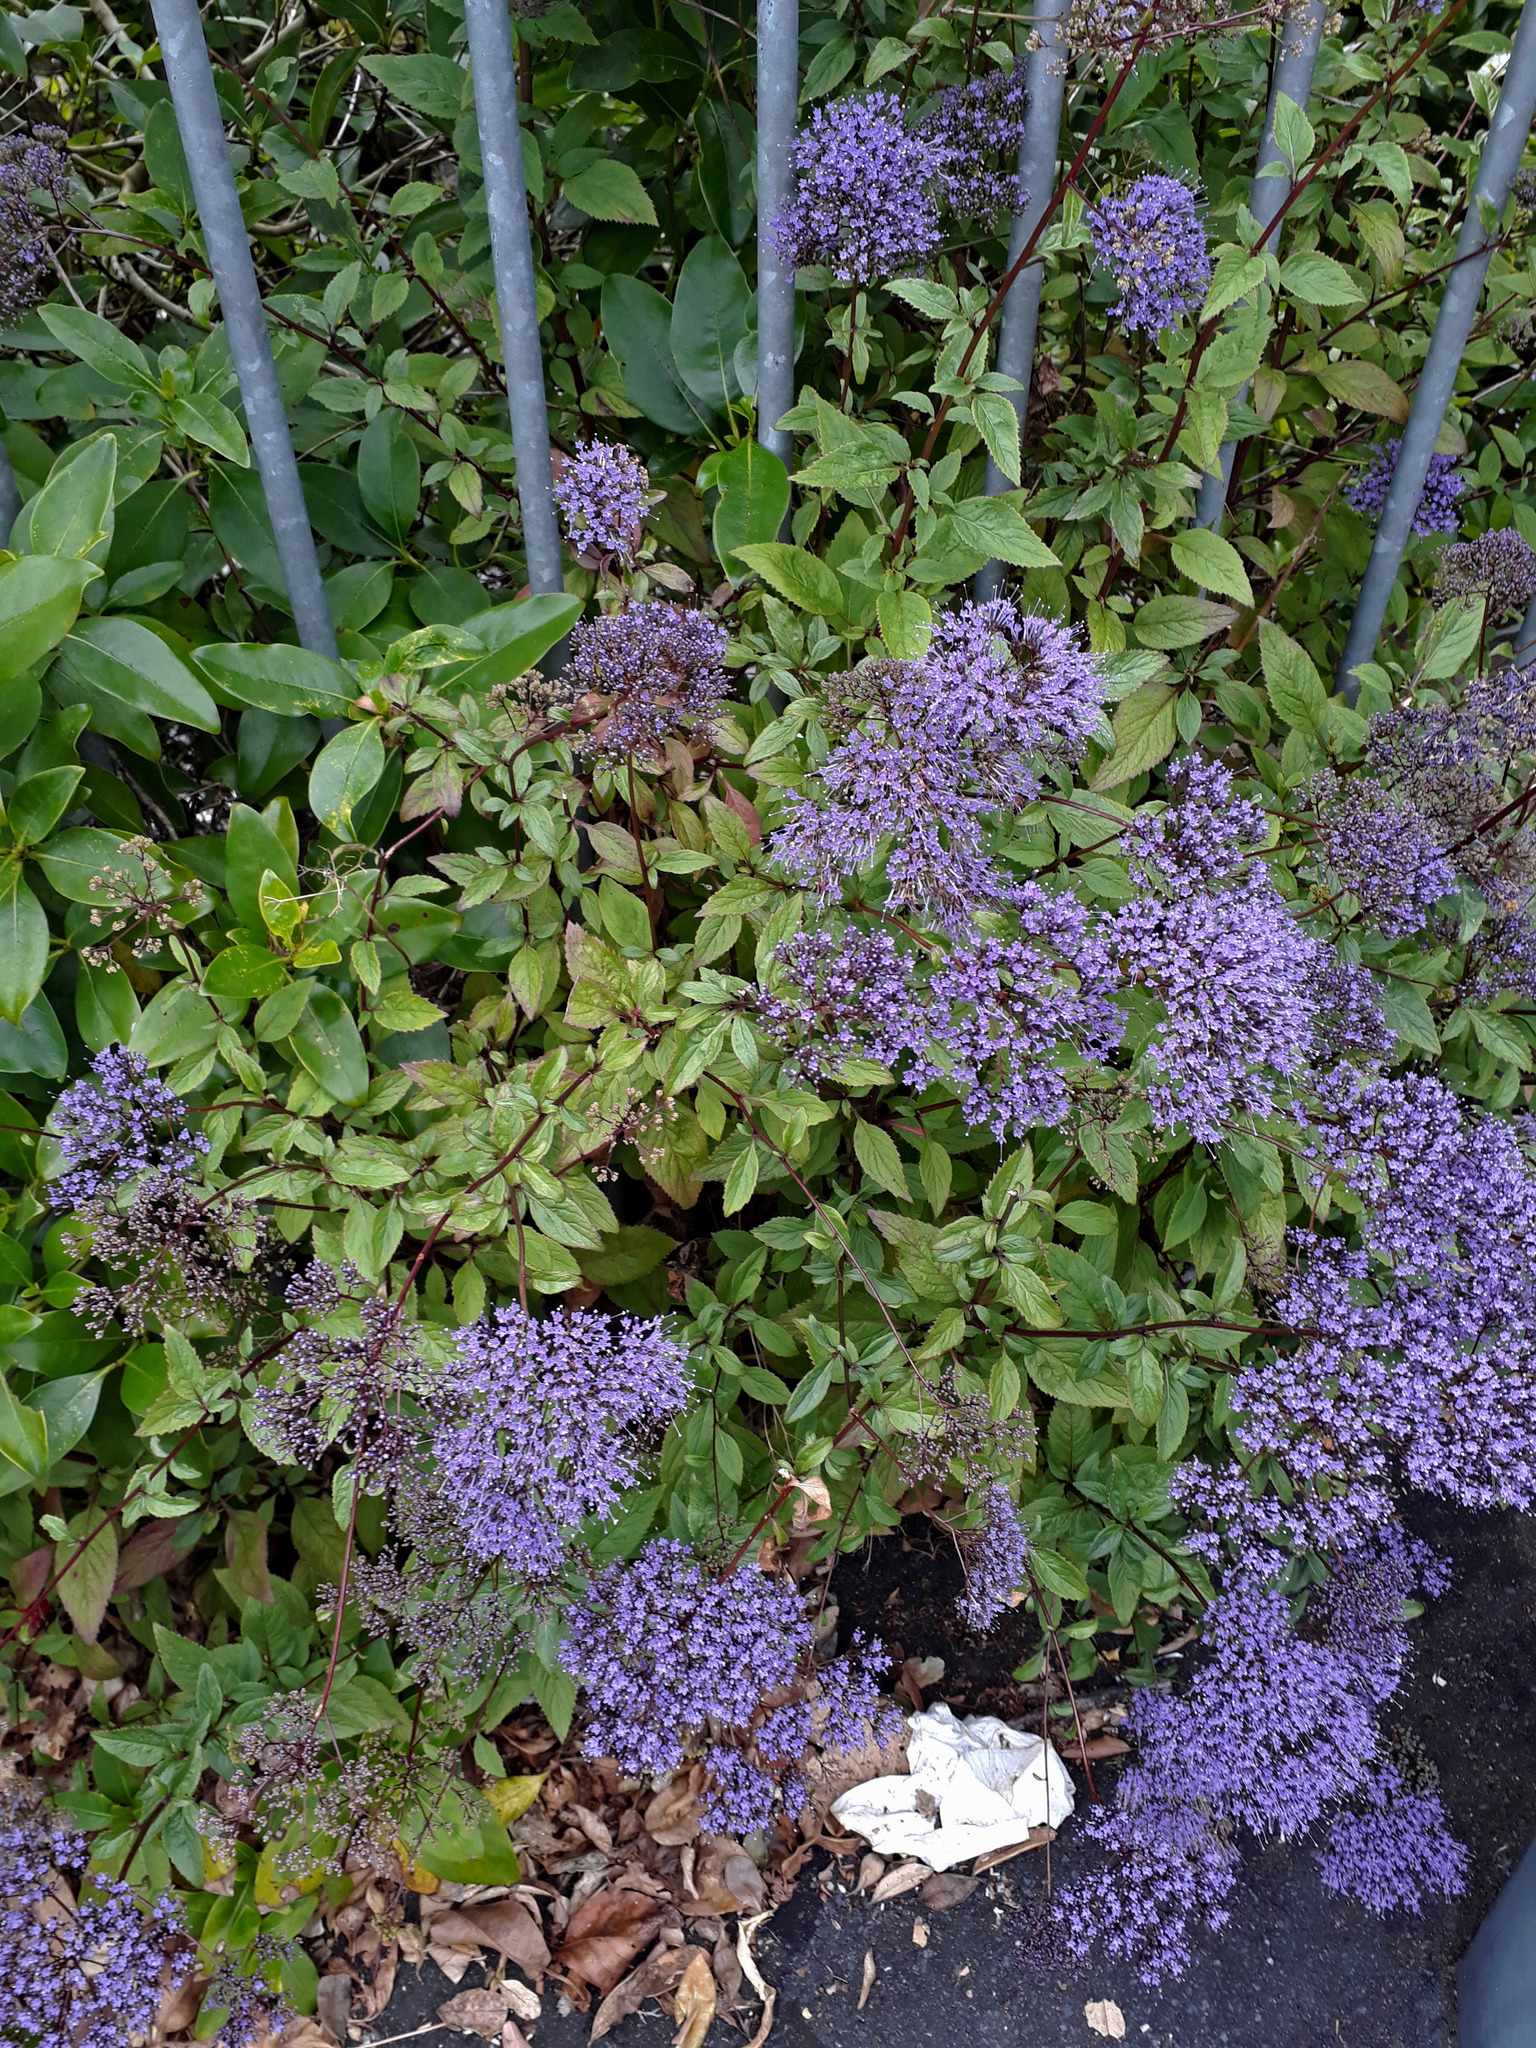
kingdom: Plantae
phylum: Tracheophyta
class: Magnoliopsida
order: Asterales
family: Campanulaceae
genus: Trachelium
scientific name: Trachelium caeruleum
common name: Throatwort
